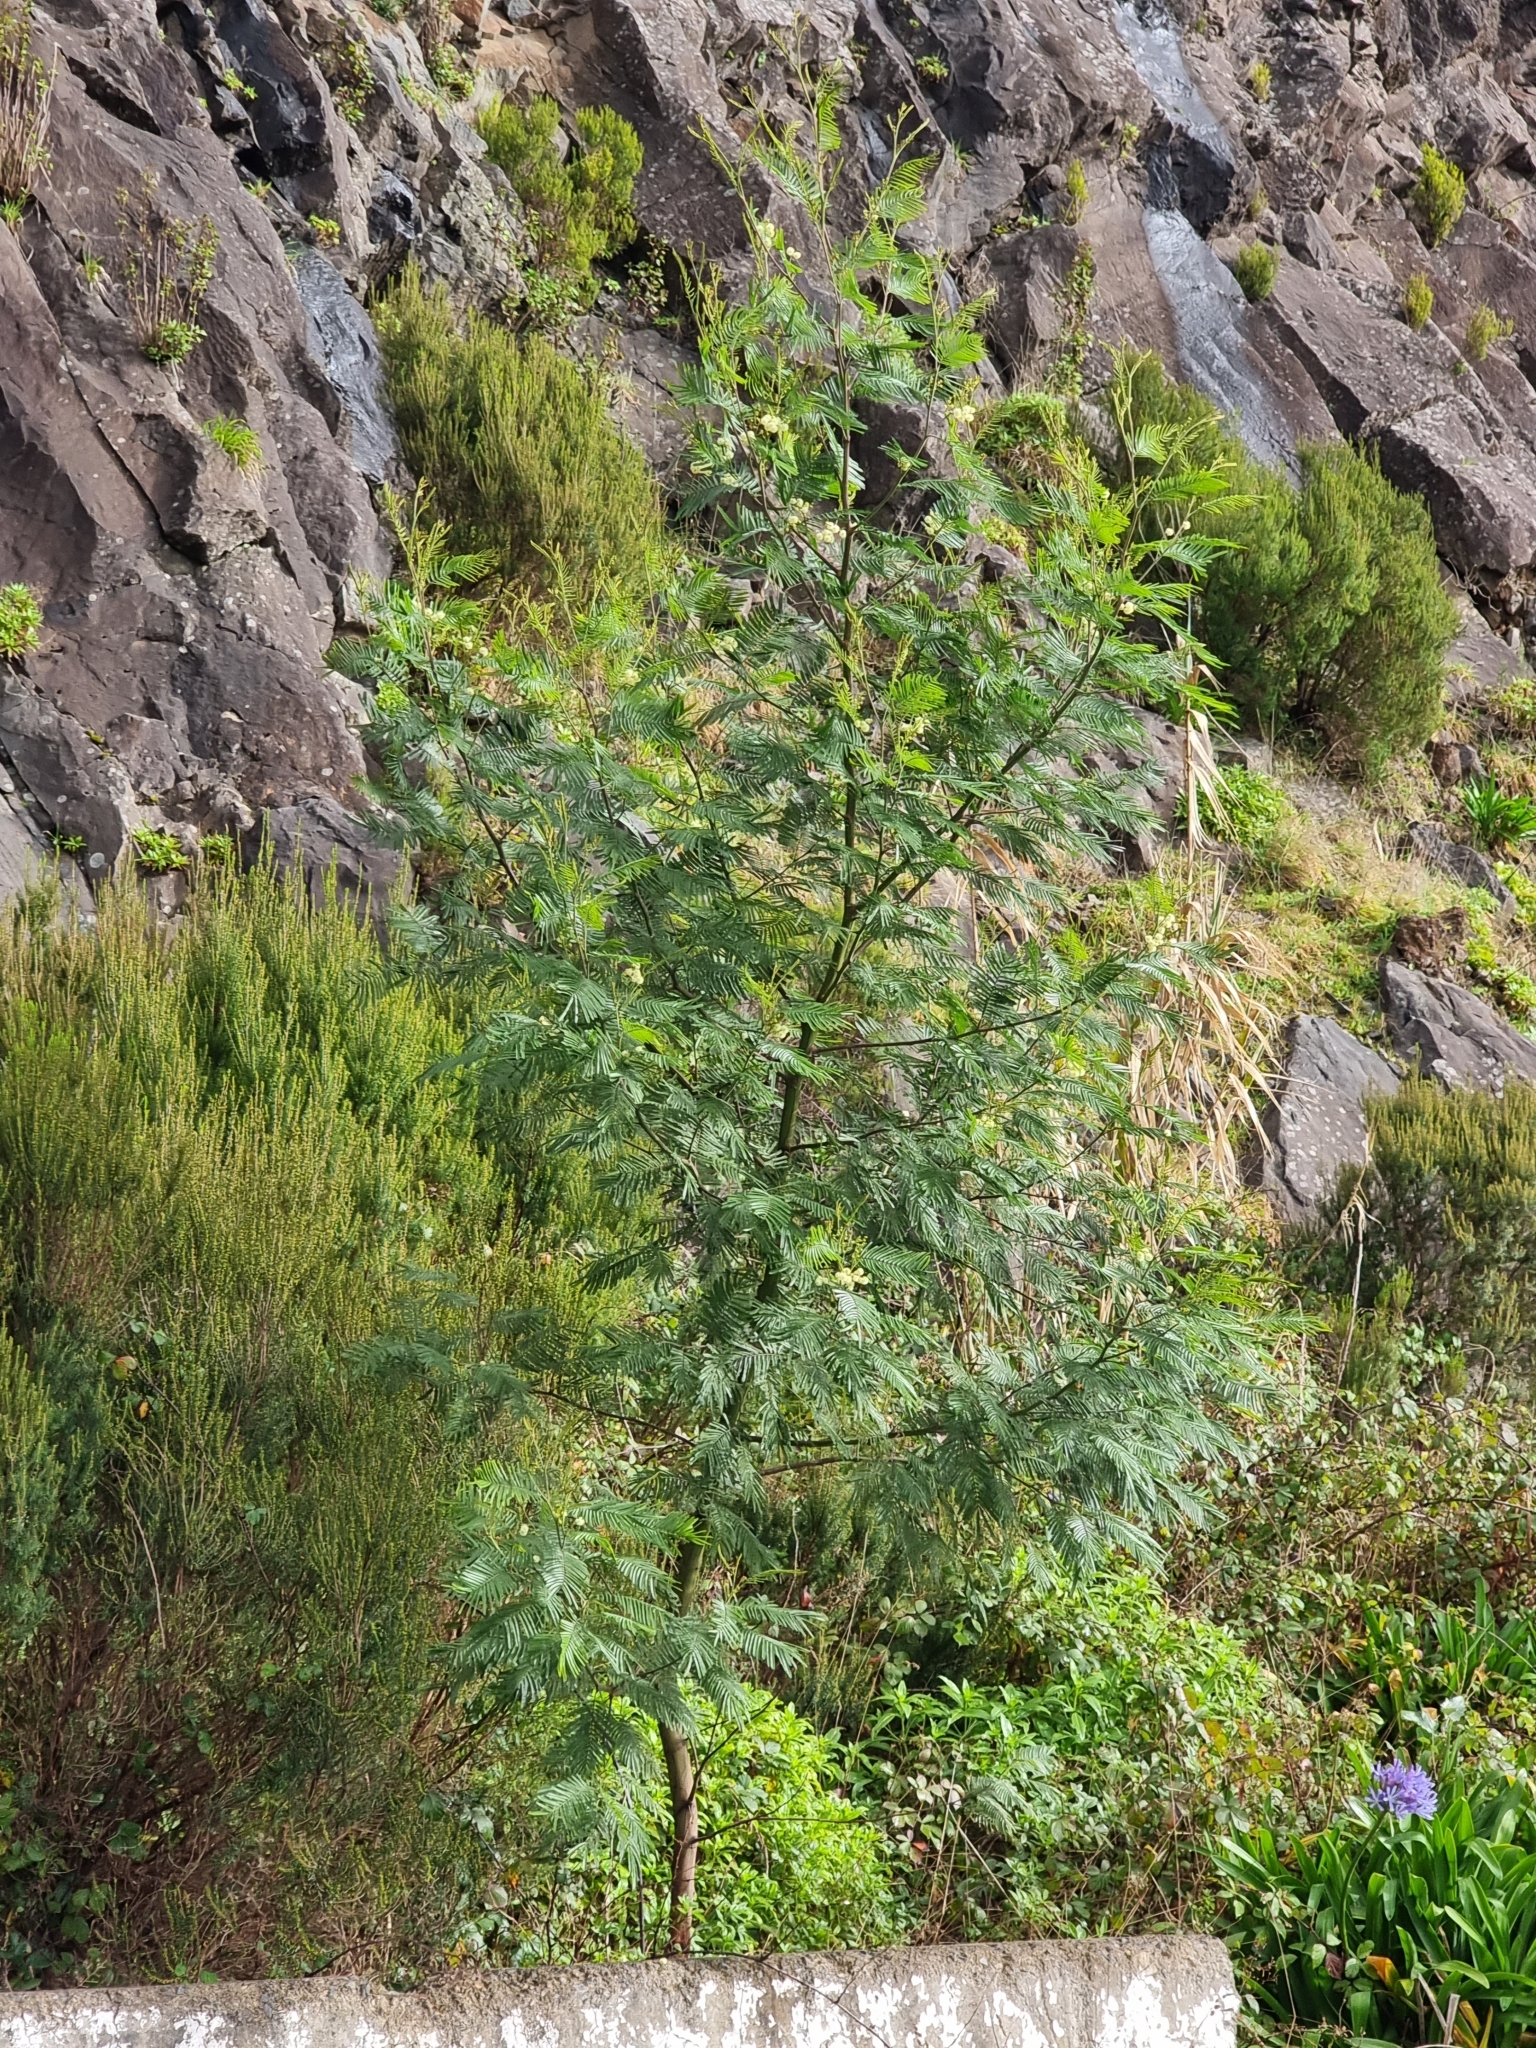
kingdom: Plantae
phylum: Tracheophyta
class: Magnoliopsida
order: Fabales
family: Fabaceae
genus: Acacia
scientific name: Acacia mearnsii
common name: Black wattle
